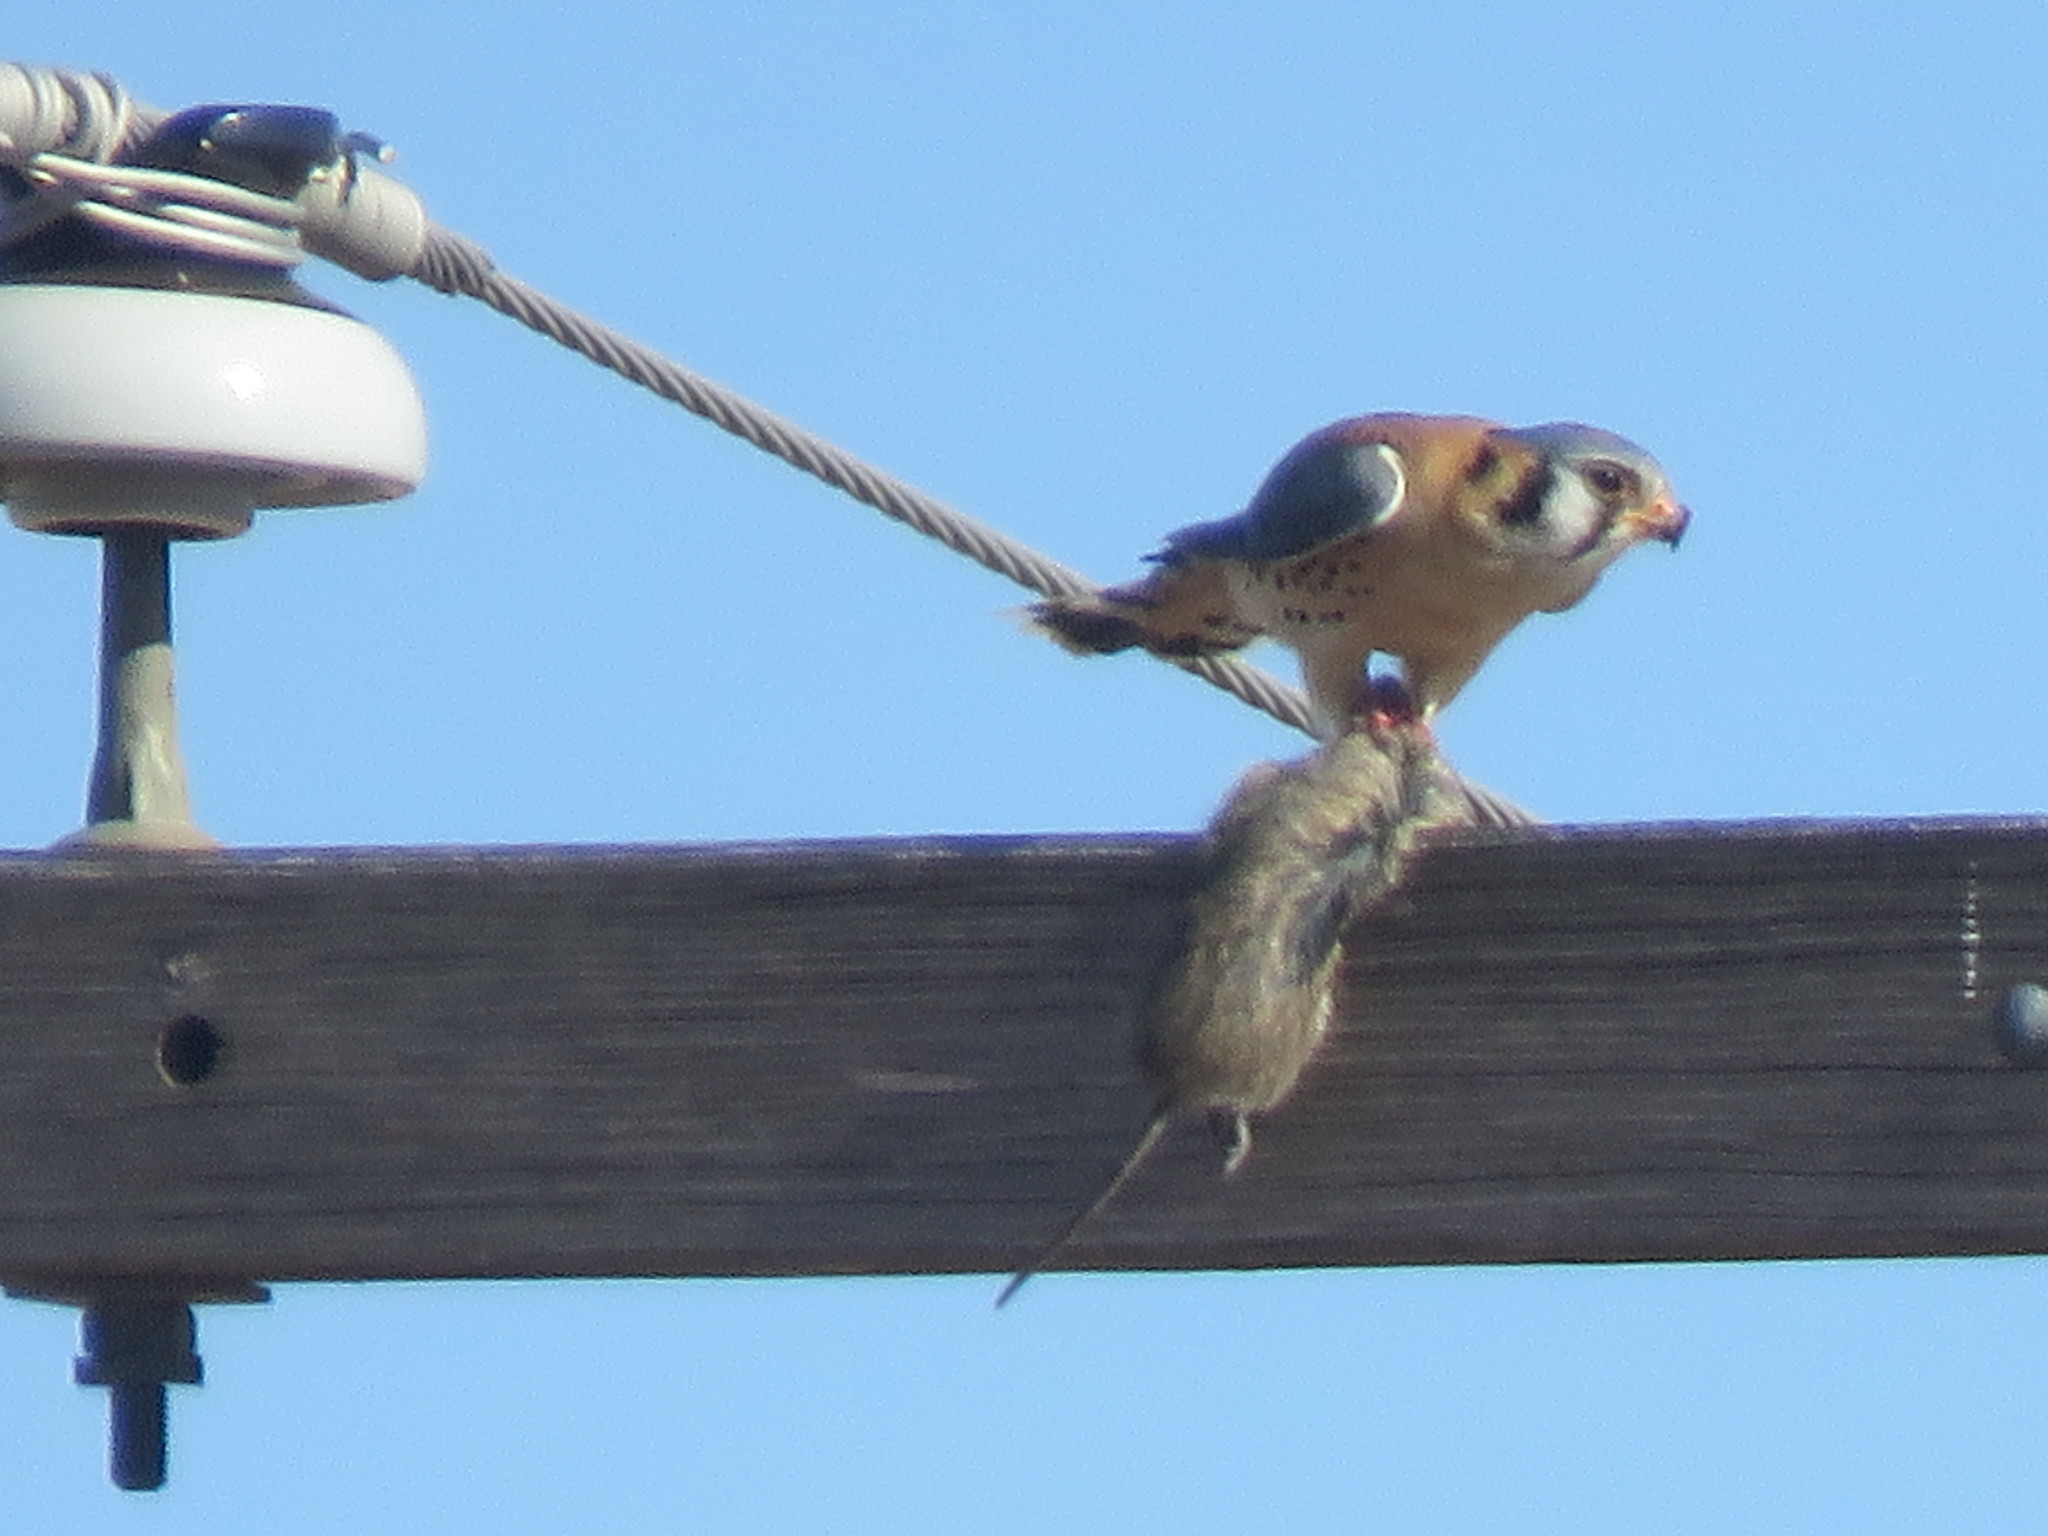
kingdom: Animalia
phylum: Chordata
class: Aves
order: Falconiformes
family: Falconidae
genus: Falco
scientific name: Falco sparverius
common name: American kestrel
